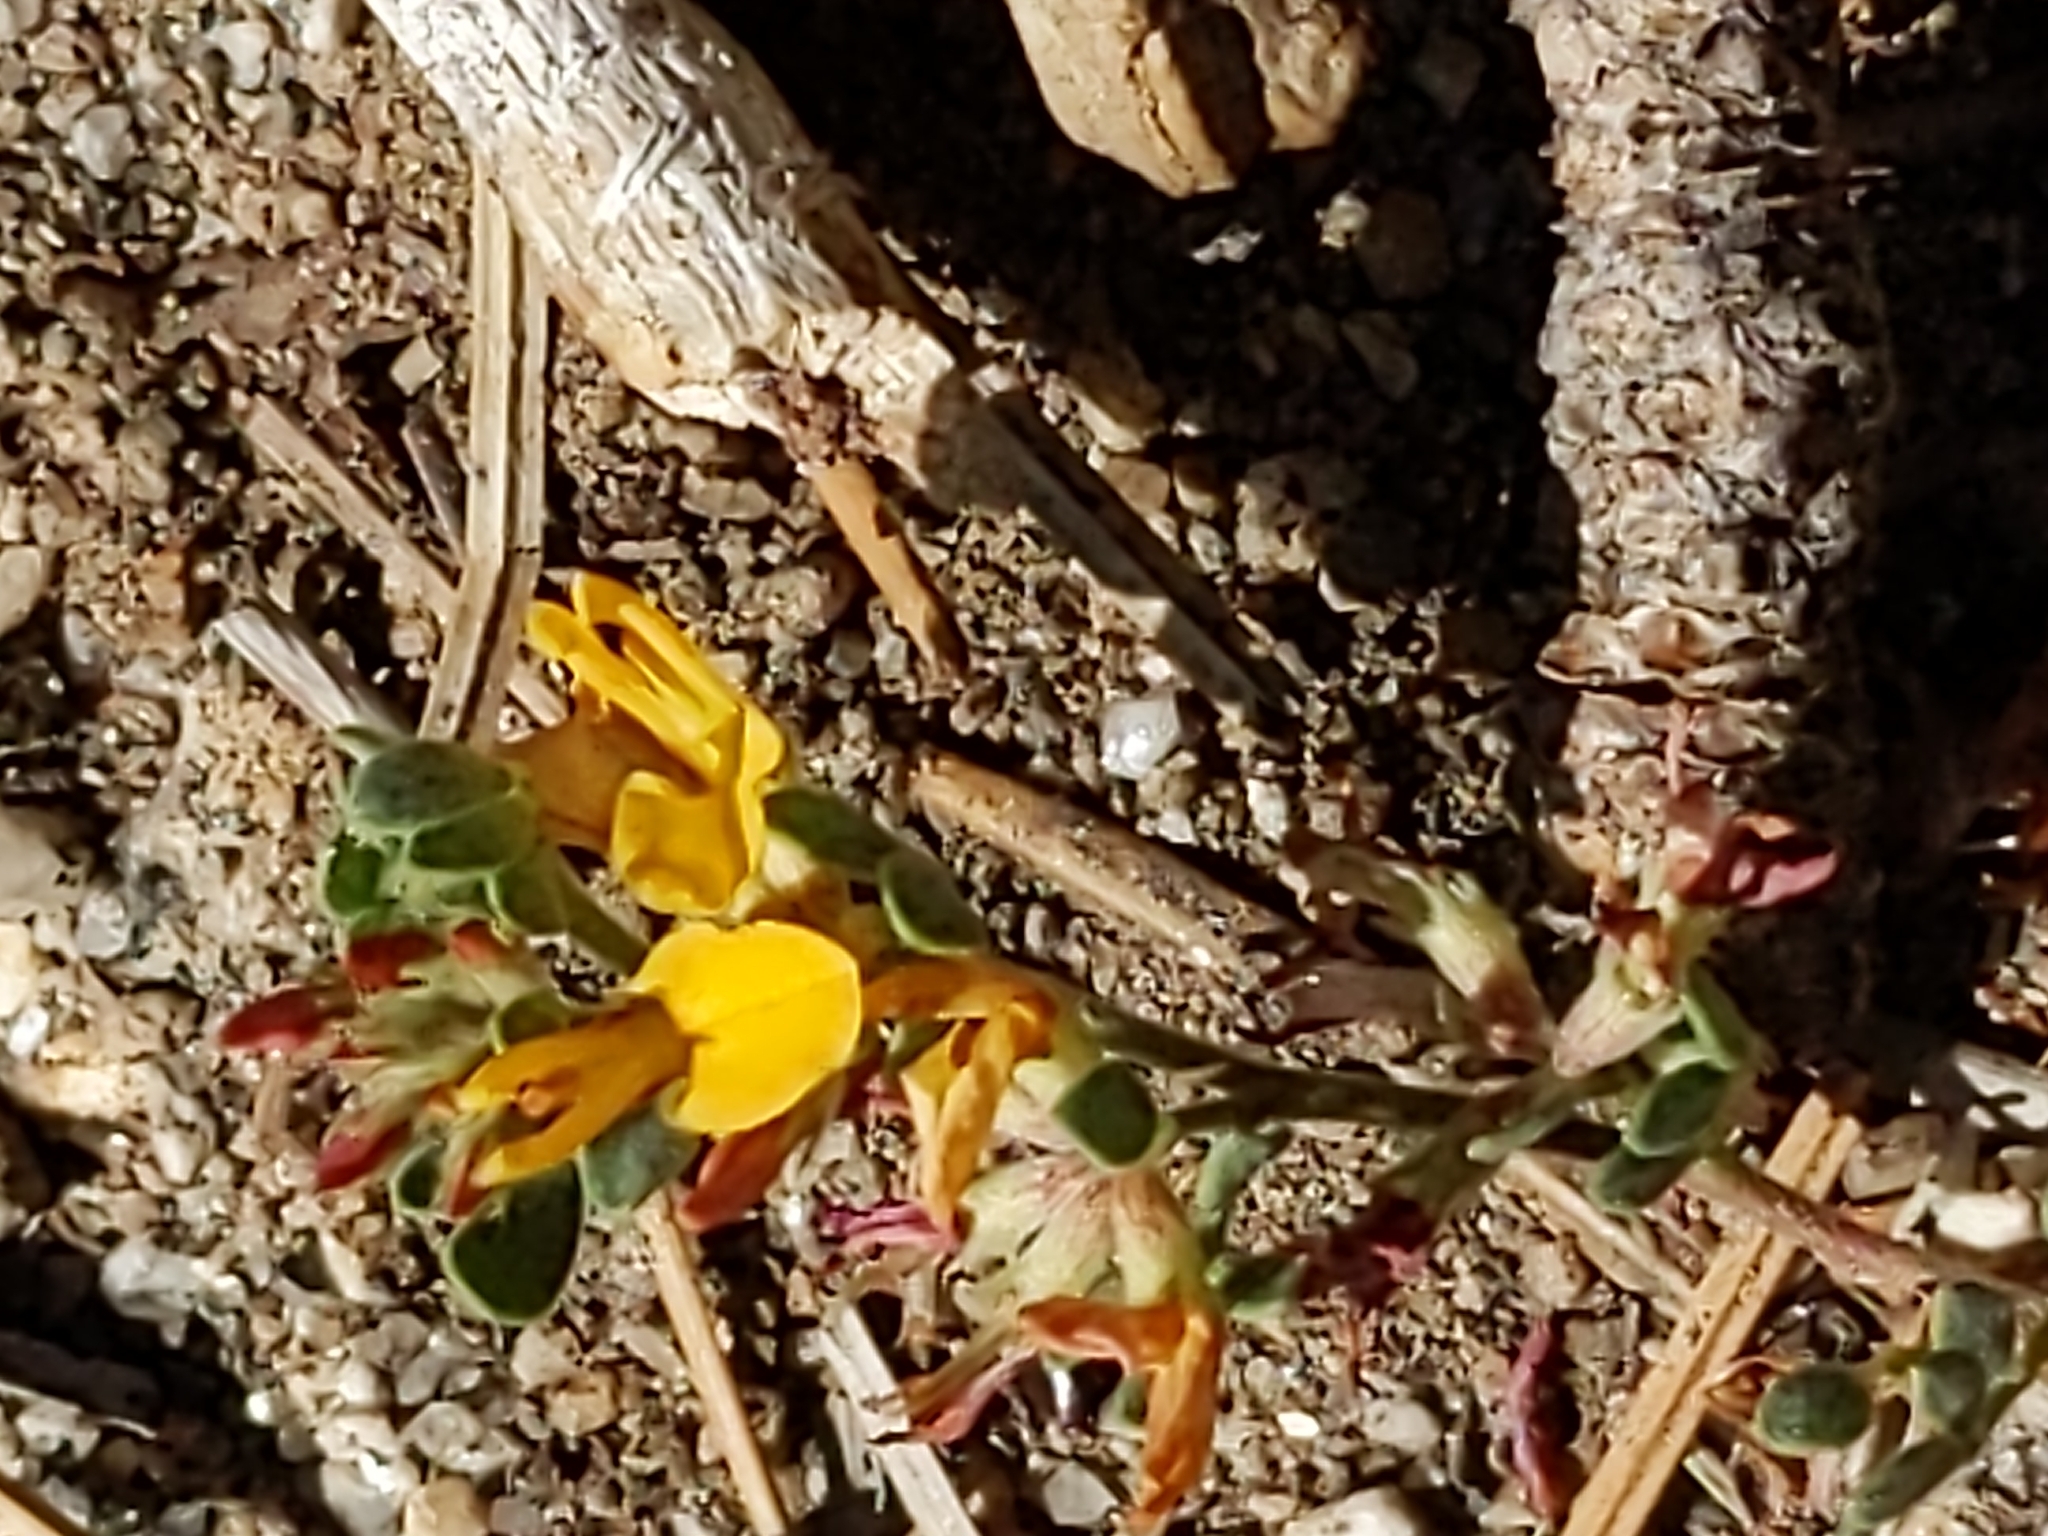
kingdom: Plantae
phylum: Tracheophyta
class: Magnoliopsida
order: Fabales
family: Fabaceae
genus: Acmispon
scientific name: Acmispon decumbens
